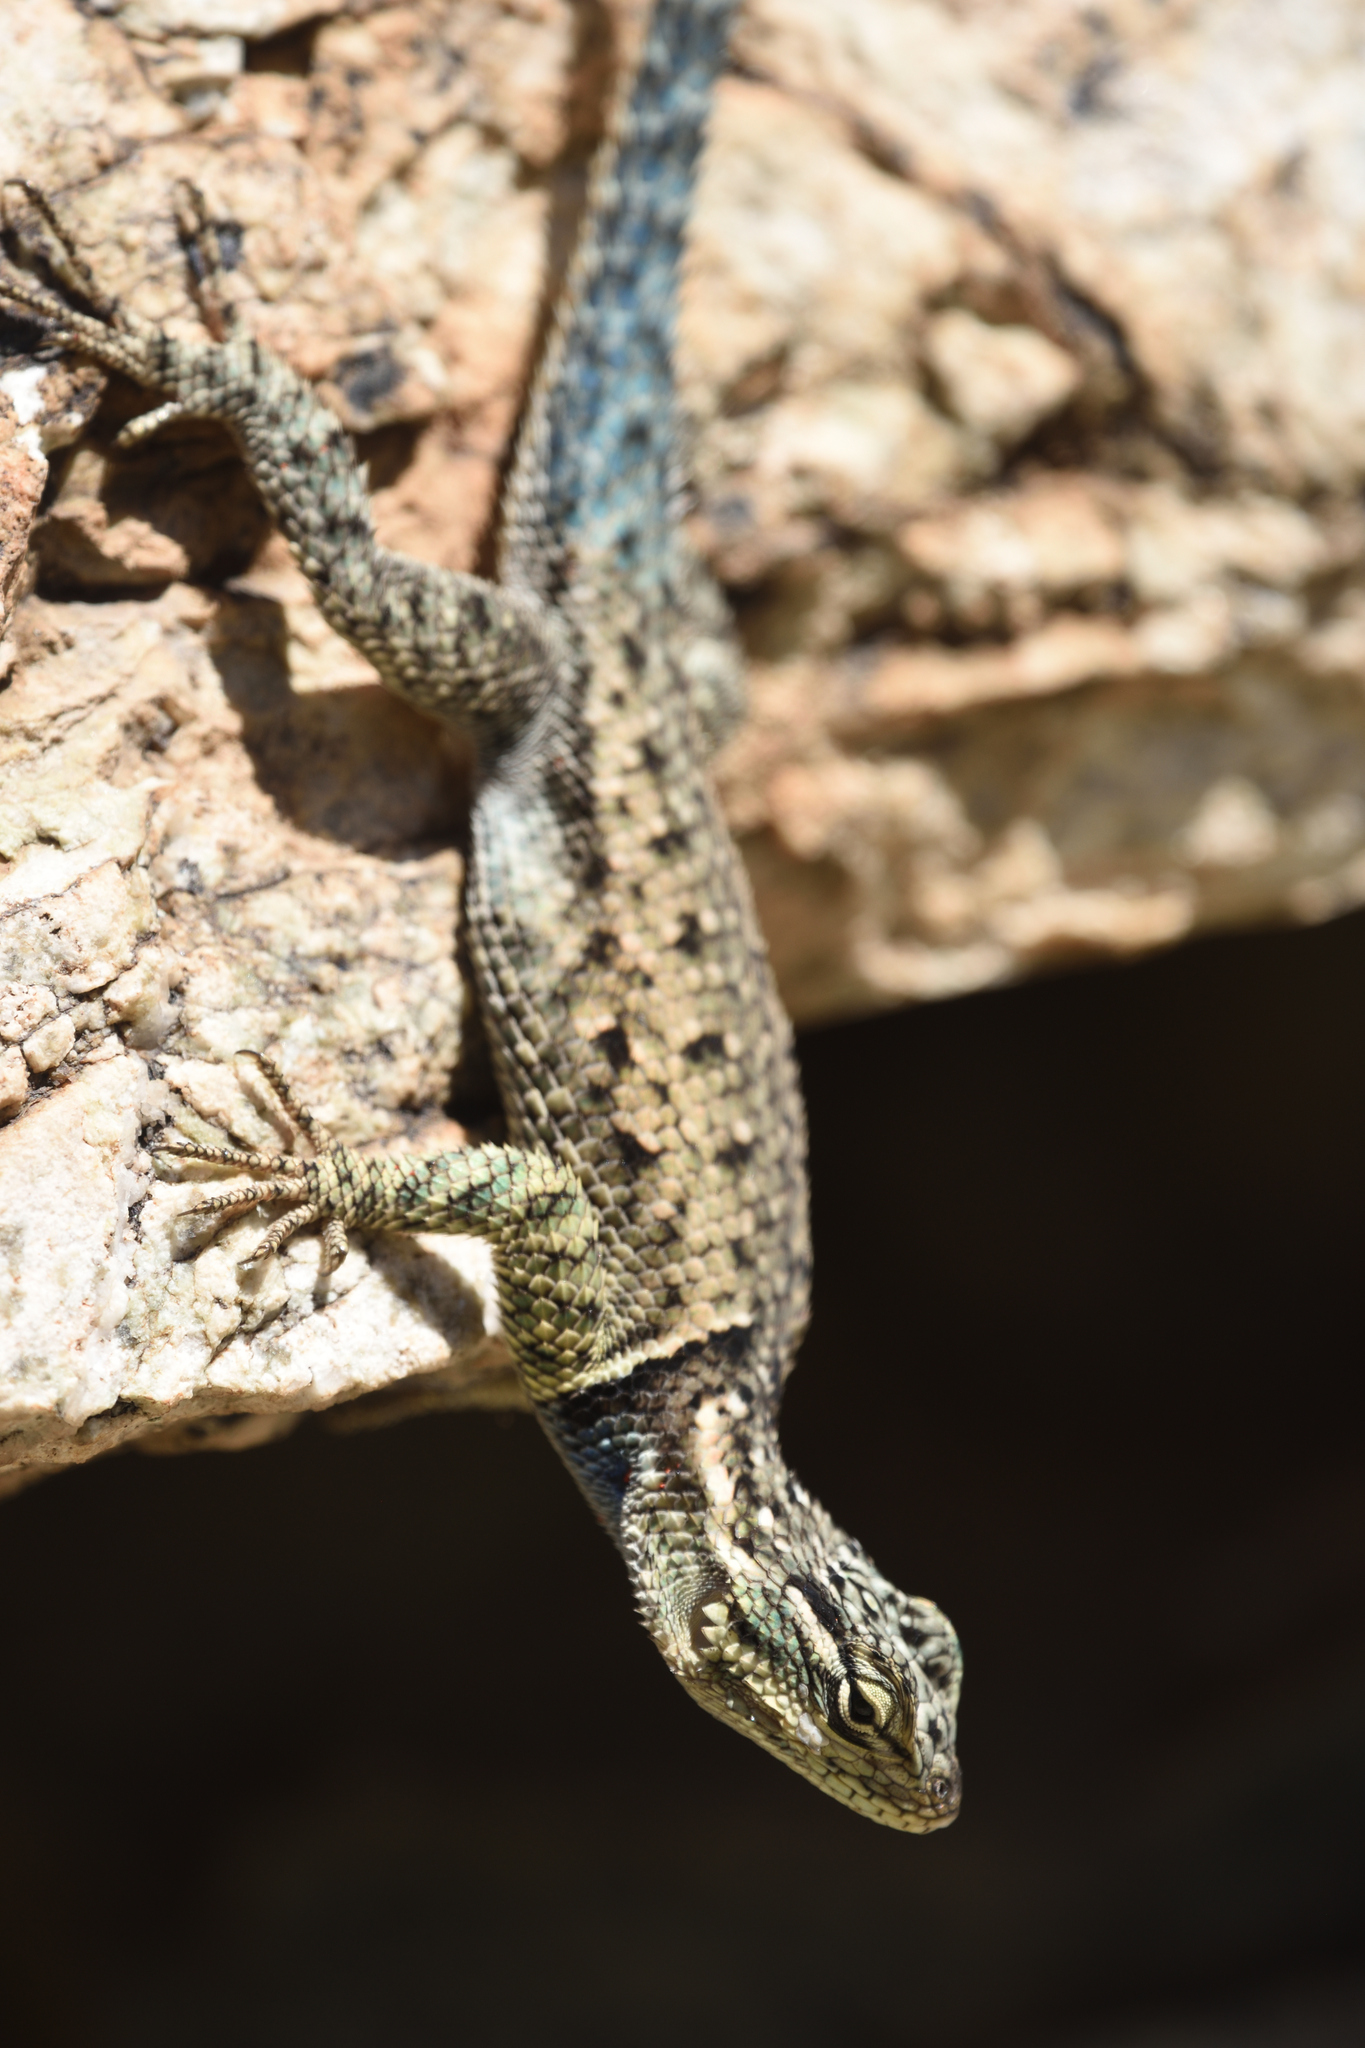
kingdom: Animalia
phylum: Chordata
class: Squamata
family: Phrynosomatidae
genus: Sceloporus
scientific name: Sceloporus jarrovii
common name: Yarrow's spiny lizard
